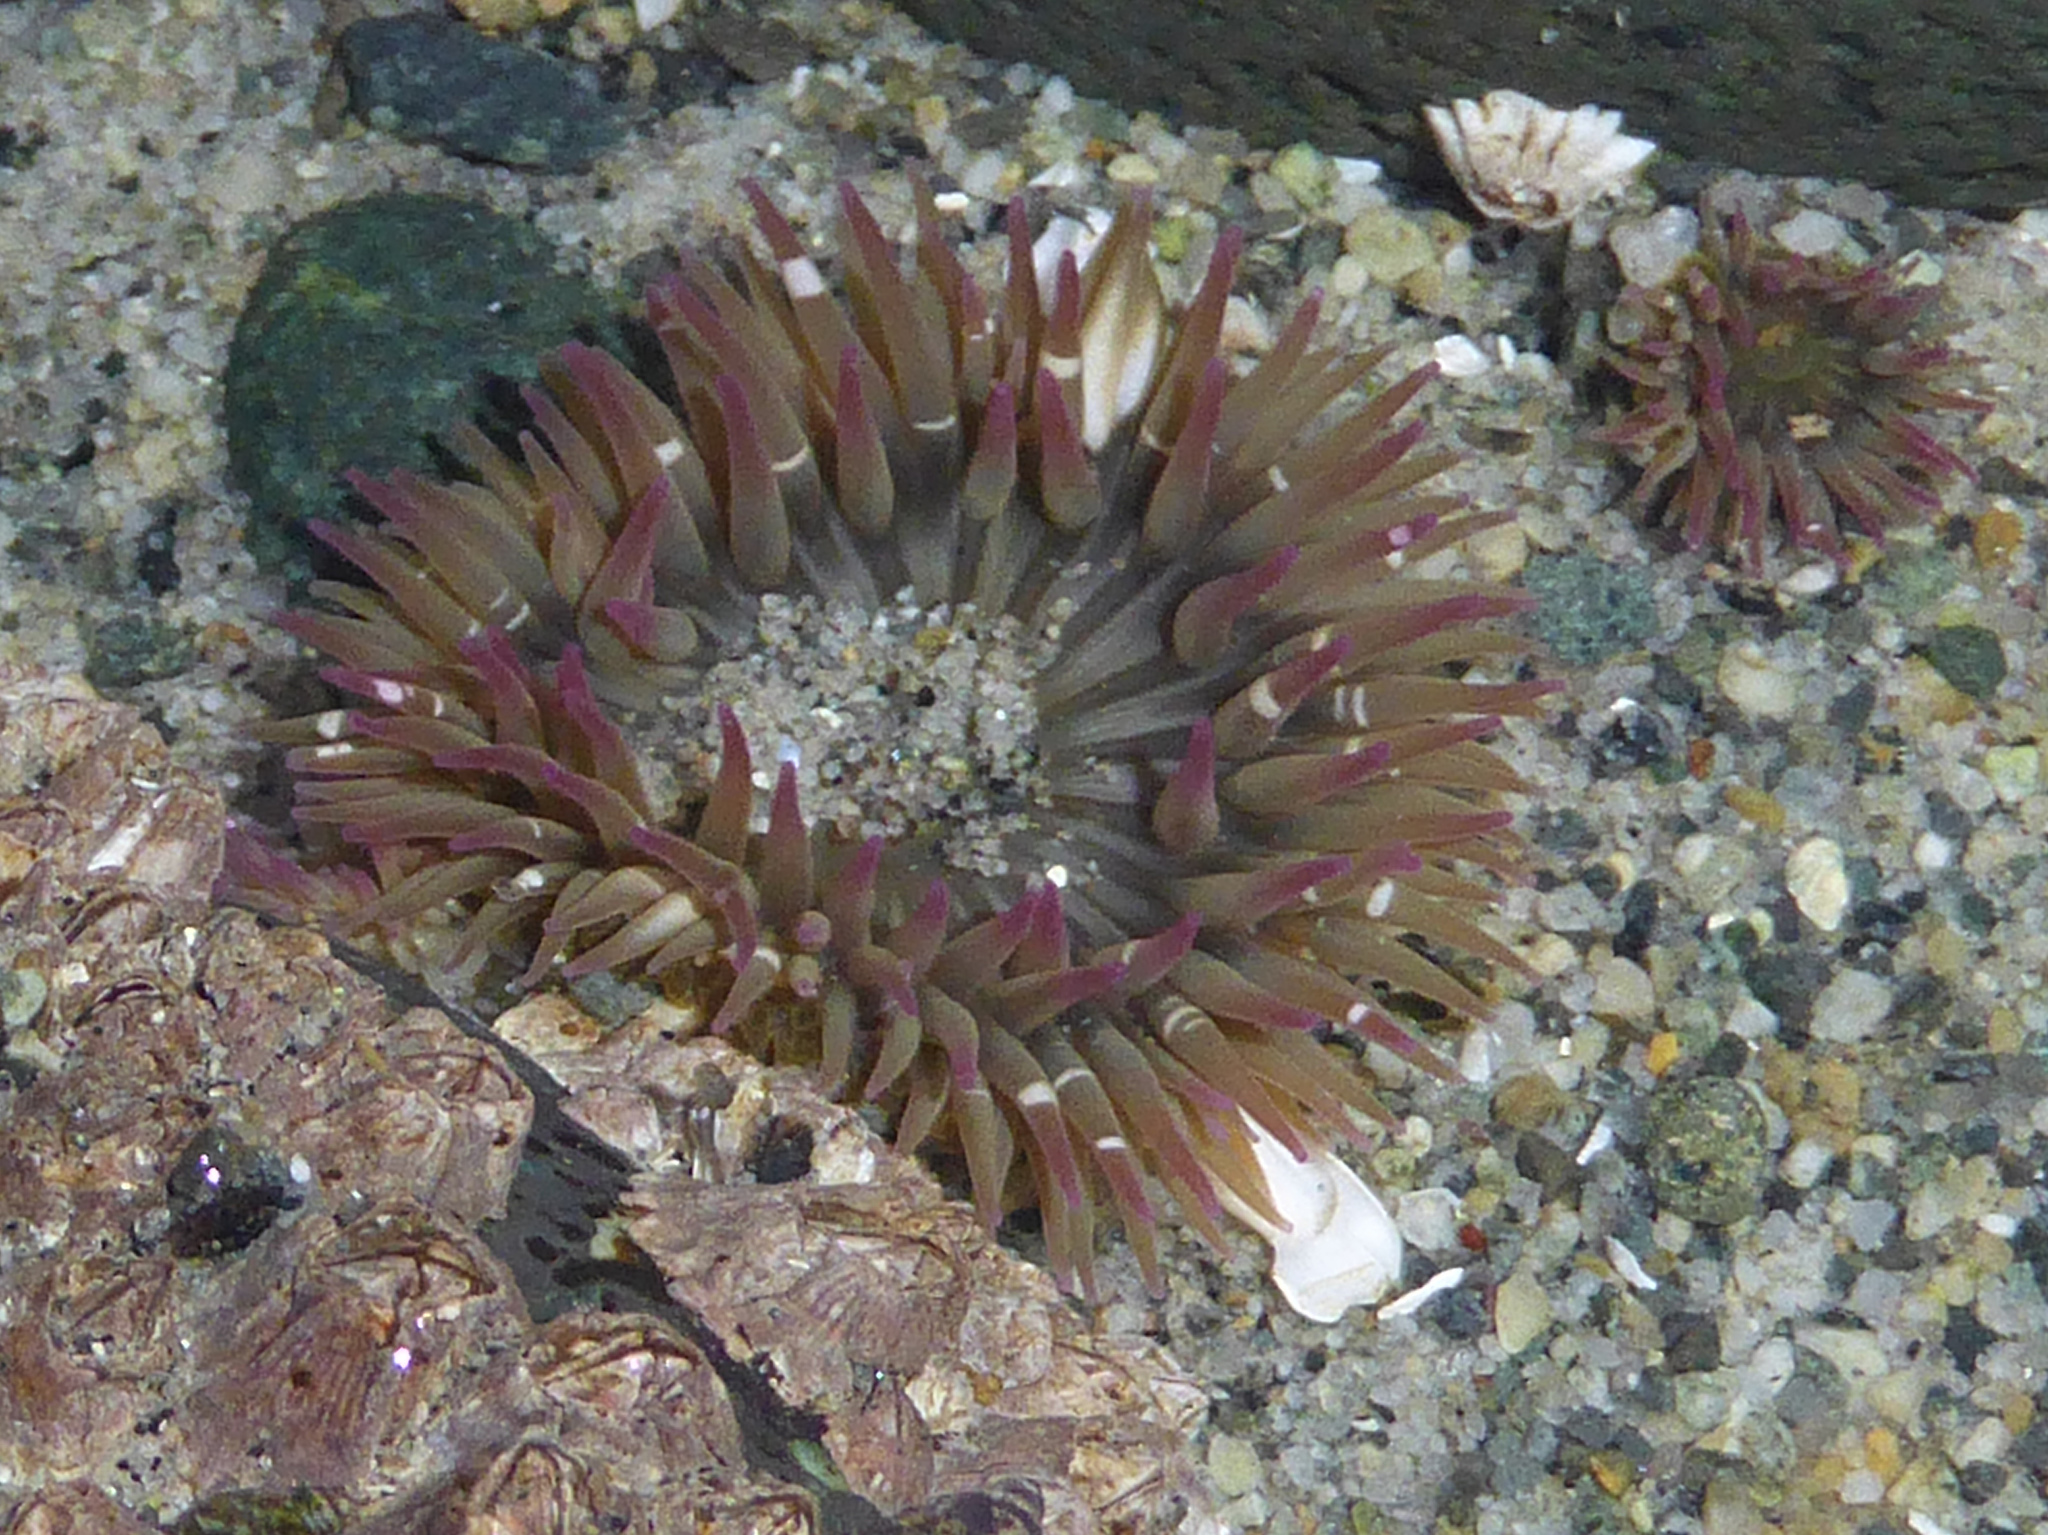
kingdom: Animalia
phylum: Cnidaria
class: Anthozoa
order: Actiniaria
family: Actiniidae
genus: Anthopleura
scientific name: Anthopleura elegantissima
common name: Clonal anemone
